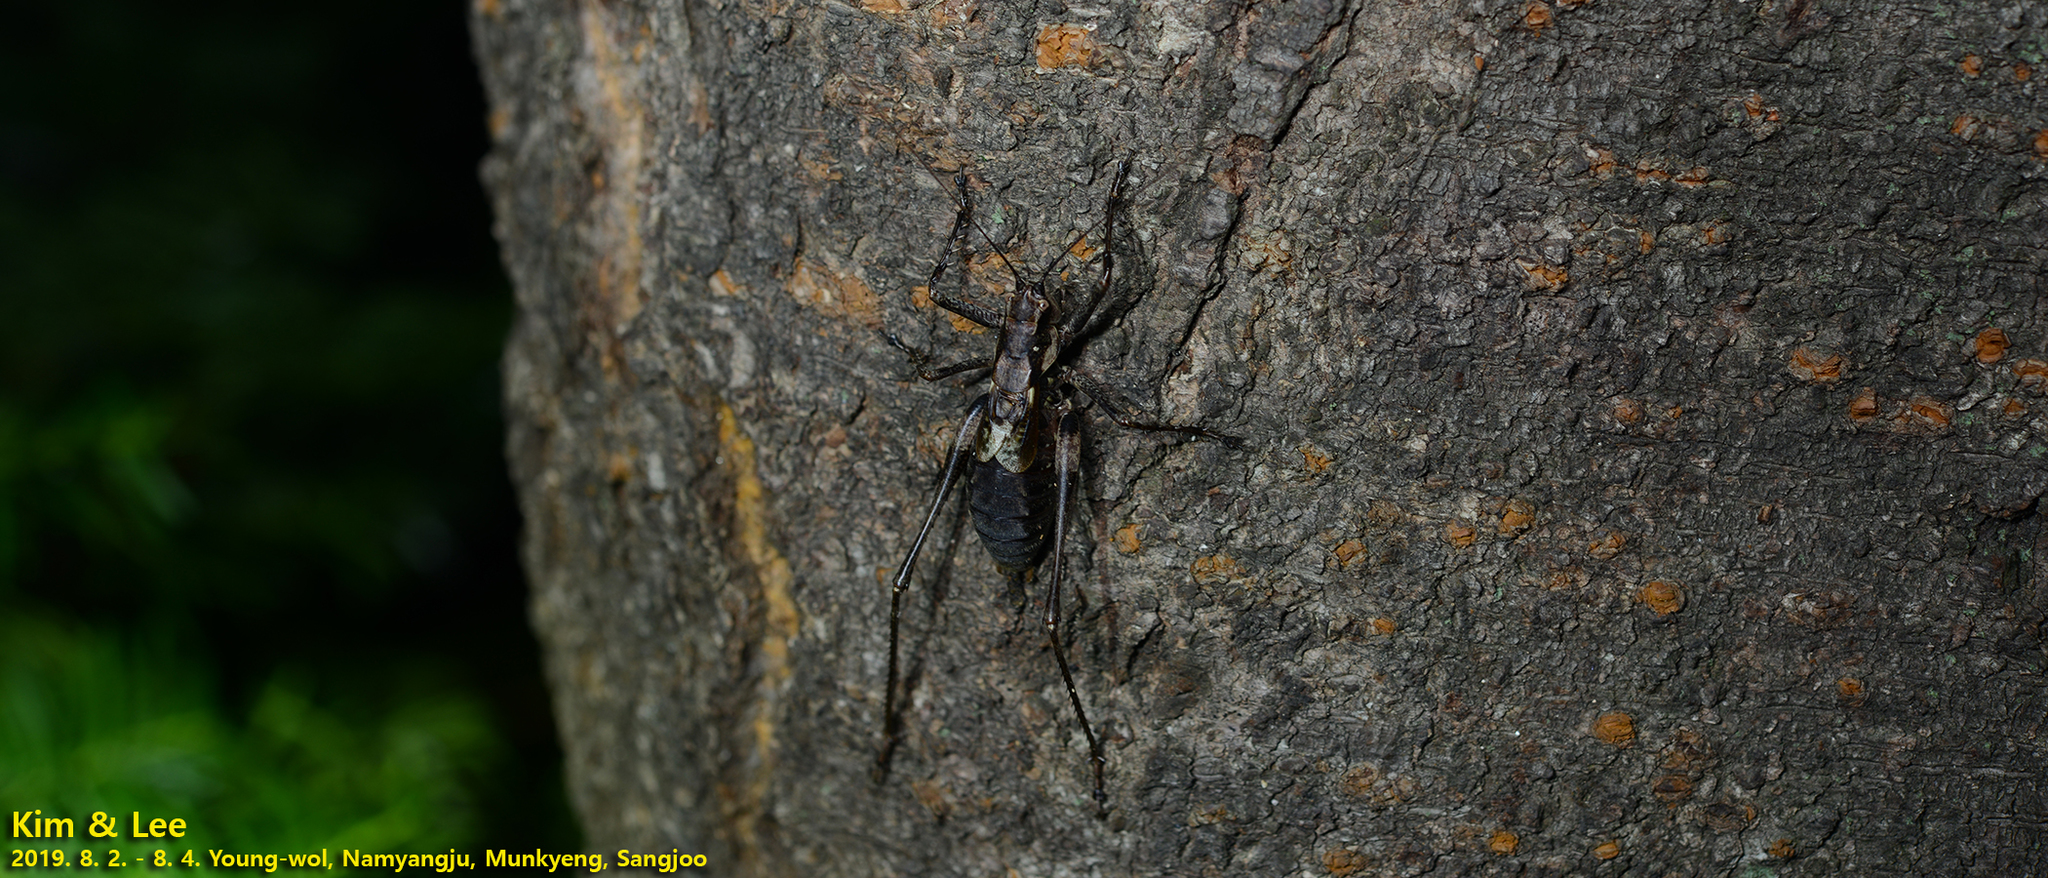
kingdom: Animalia
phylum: Arthropoda
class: Insecta
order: Orthoptera
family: Tettigoniidae
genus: Paratlanticus
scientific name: Paratlanticus ussuriensis
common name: Ussur brown katydid
